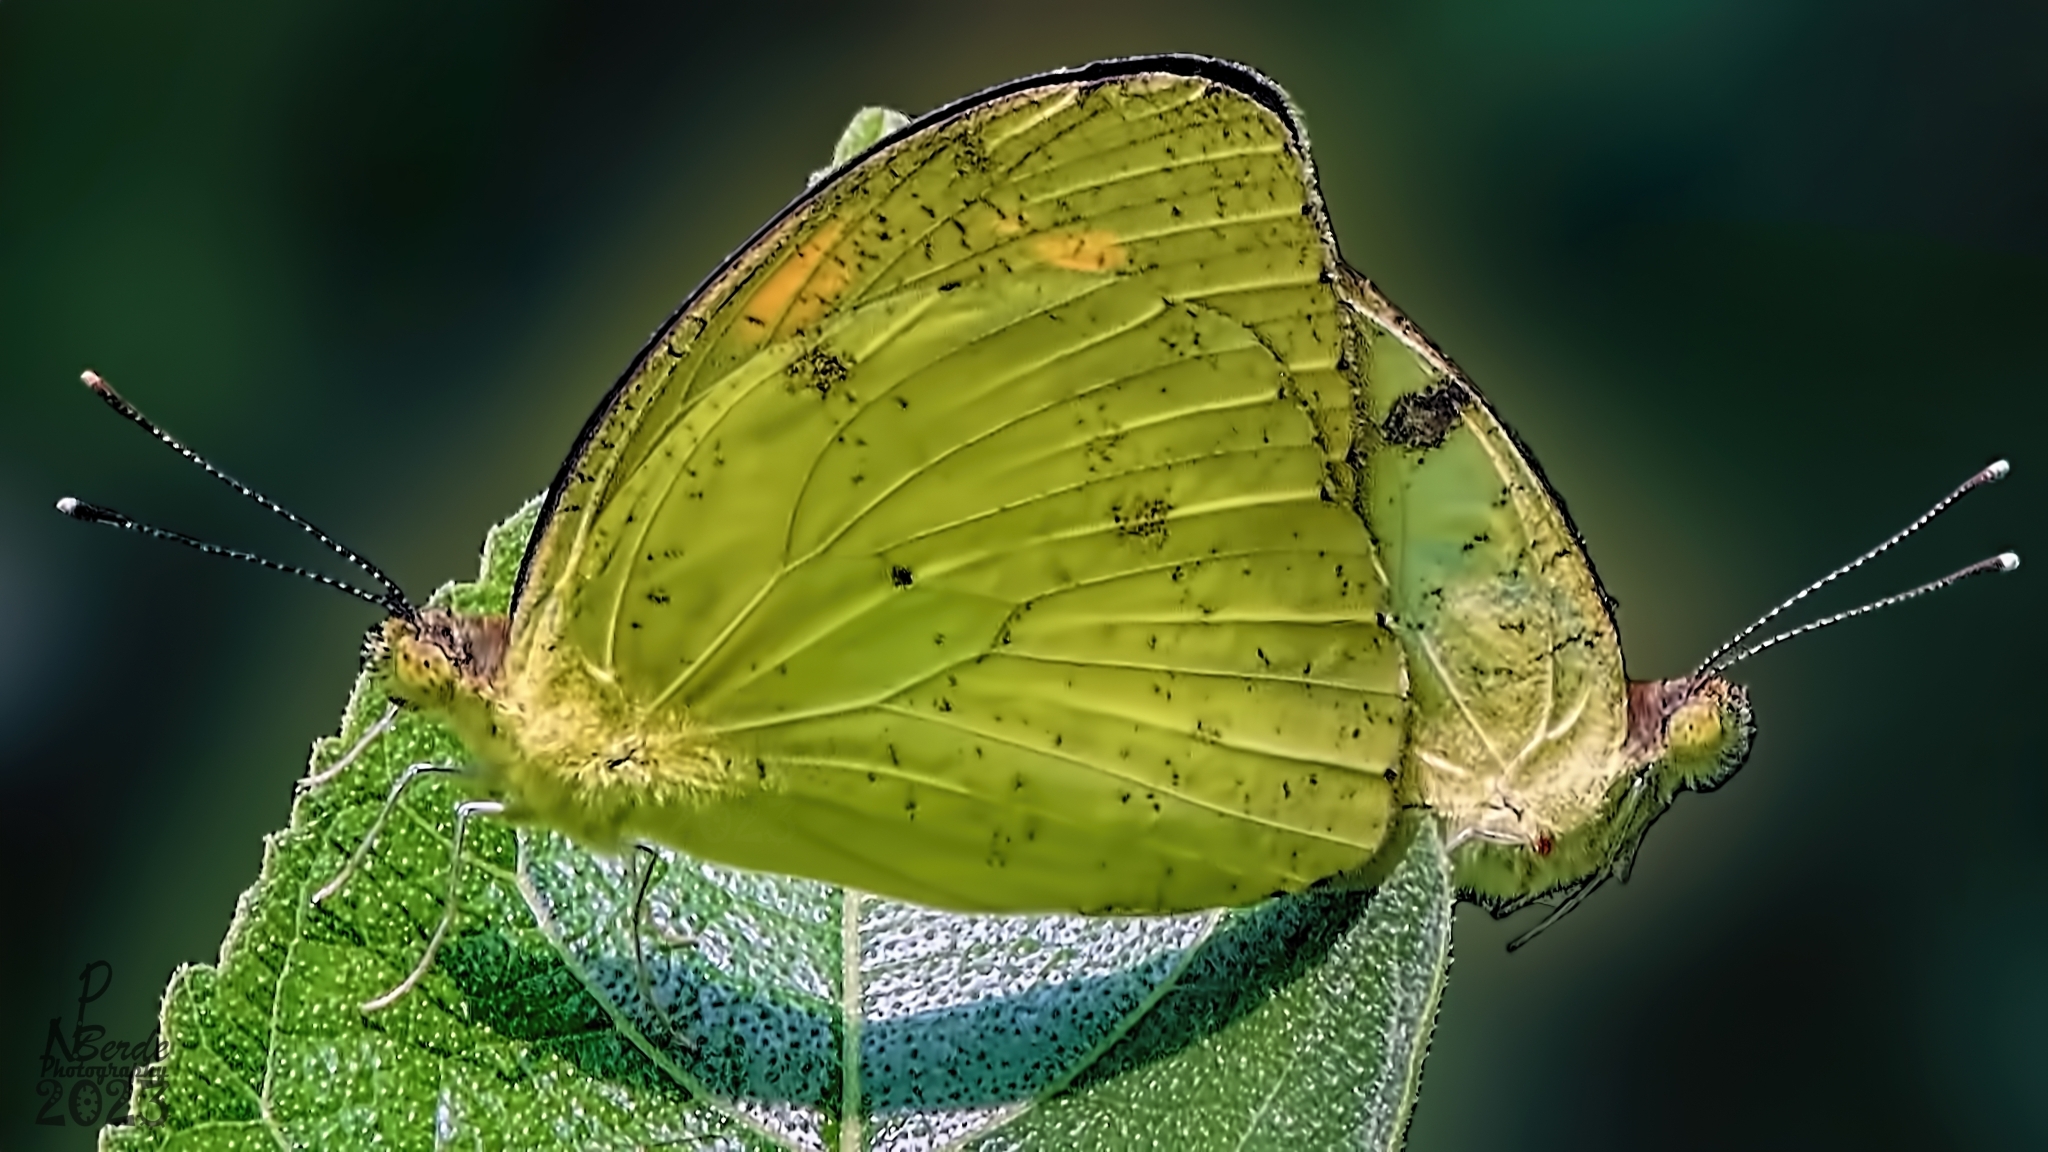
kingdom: Animalia
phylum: Arthropoda
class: Insecta
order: Lepidoptera
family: Pieridae
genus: Ixias
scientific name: Ixias pyrene
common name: Yellow orange tip
